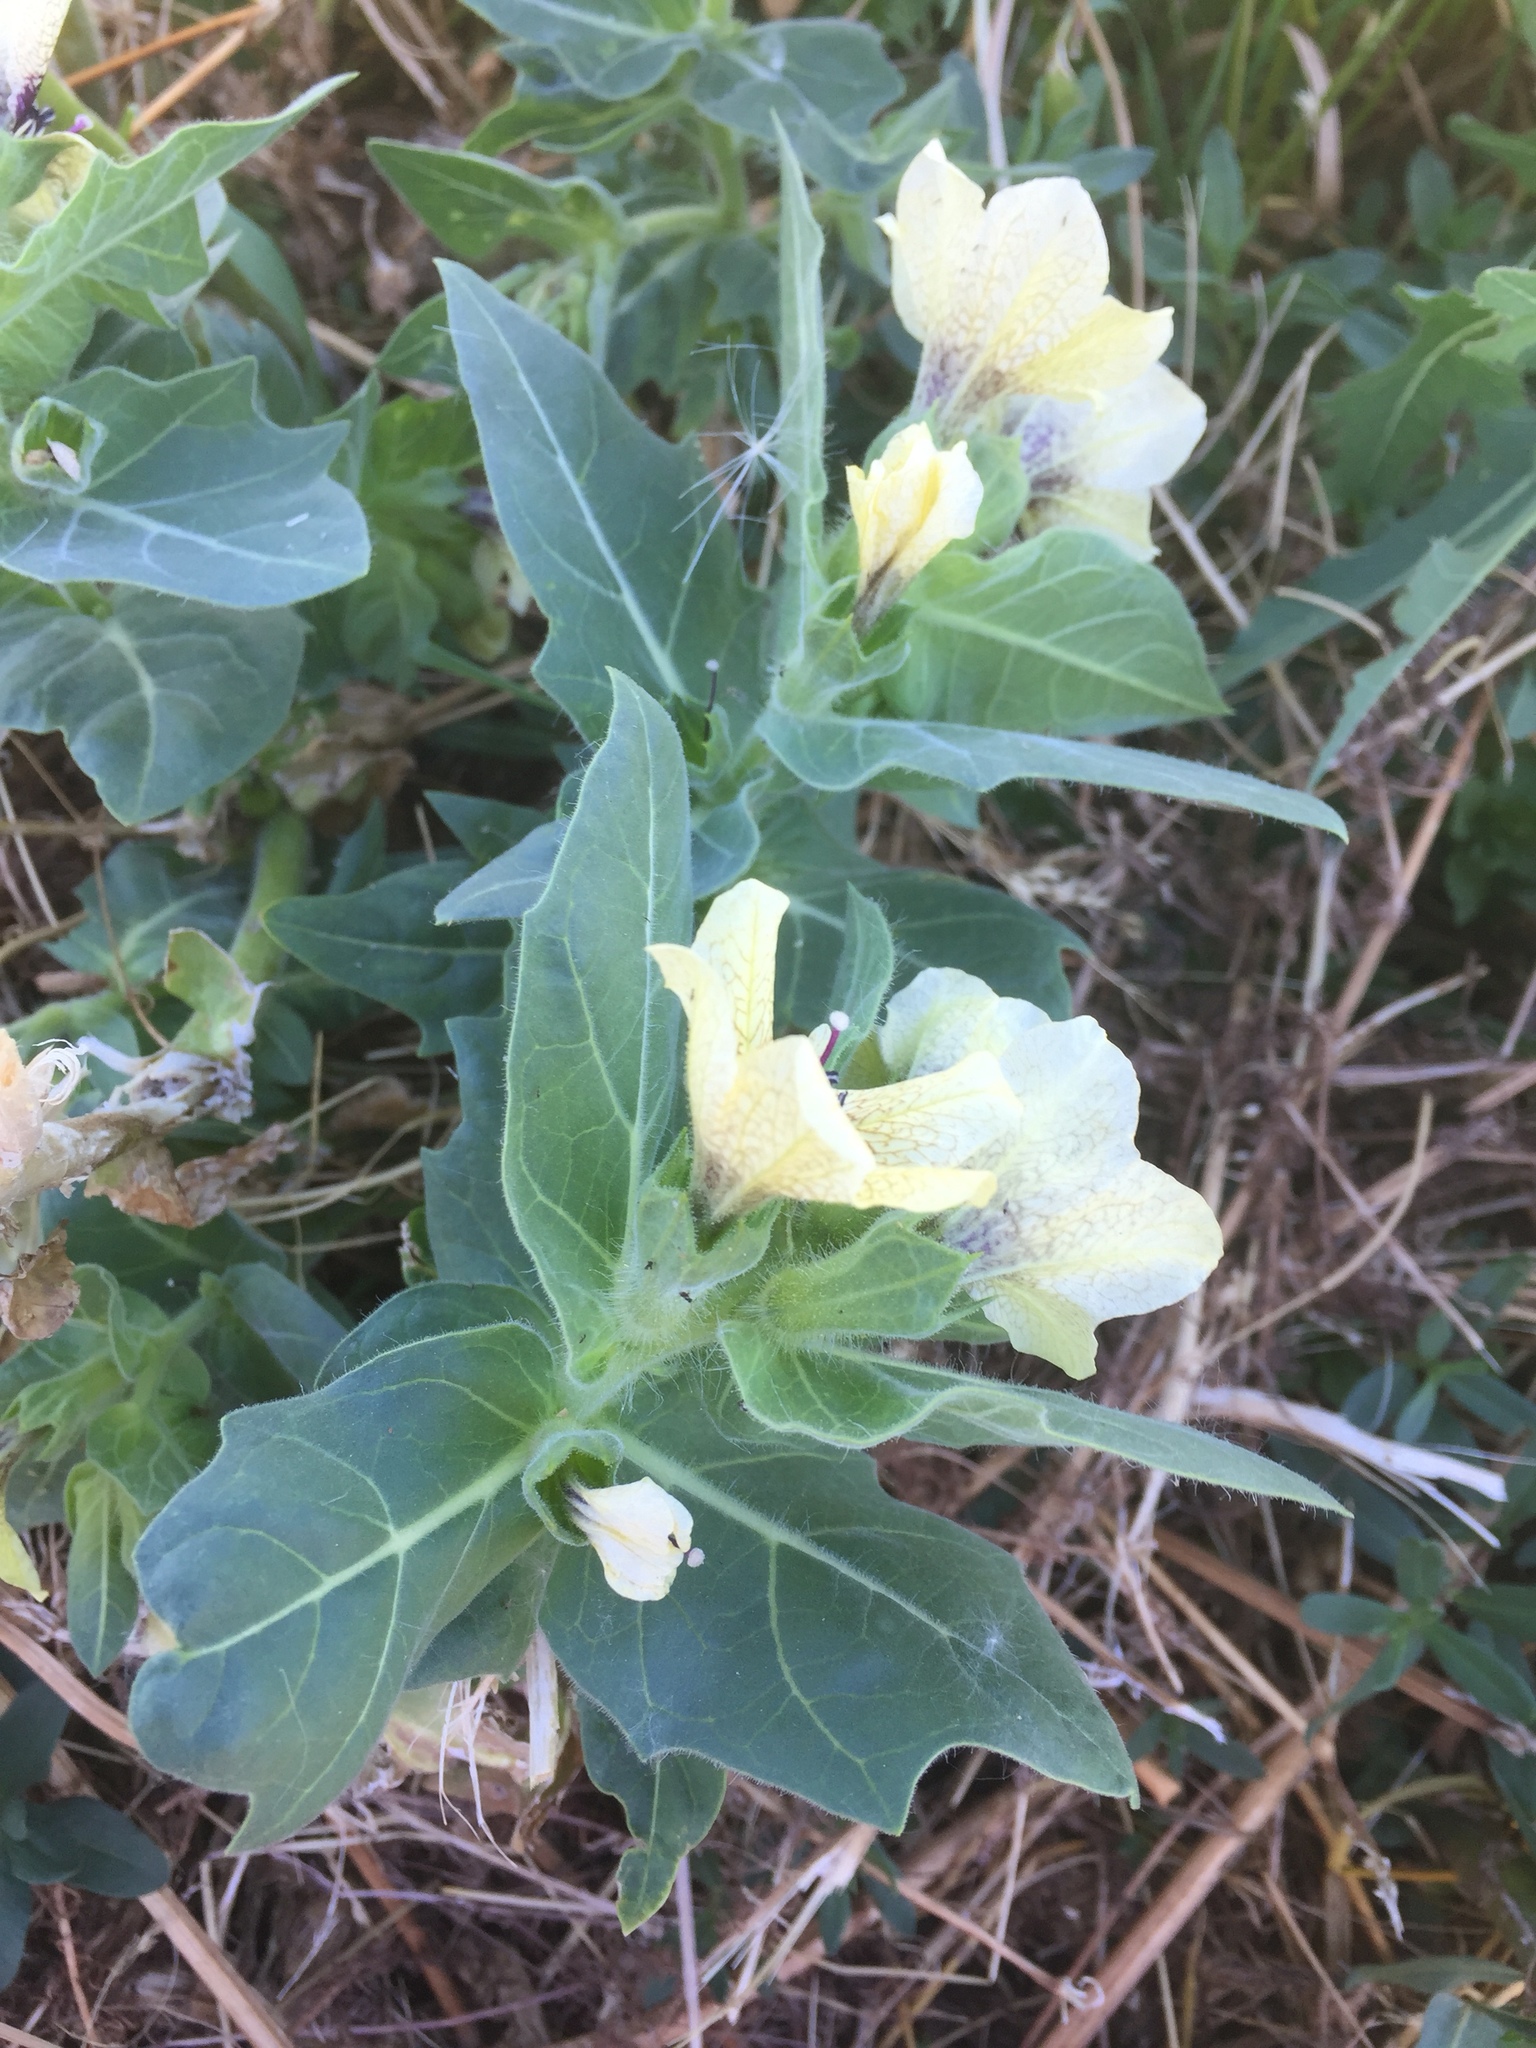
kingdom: Plantae
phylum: Tracheophyta
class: Magnoliopsida
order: Solanales
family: Solanaceae
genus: Hyoscyamus
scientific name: Hyoscyamus niger
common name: Henbane
